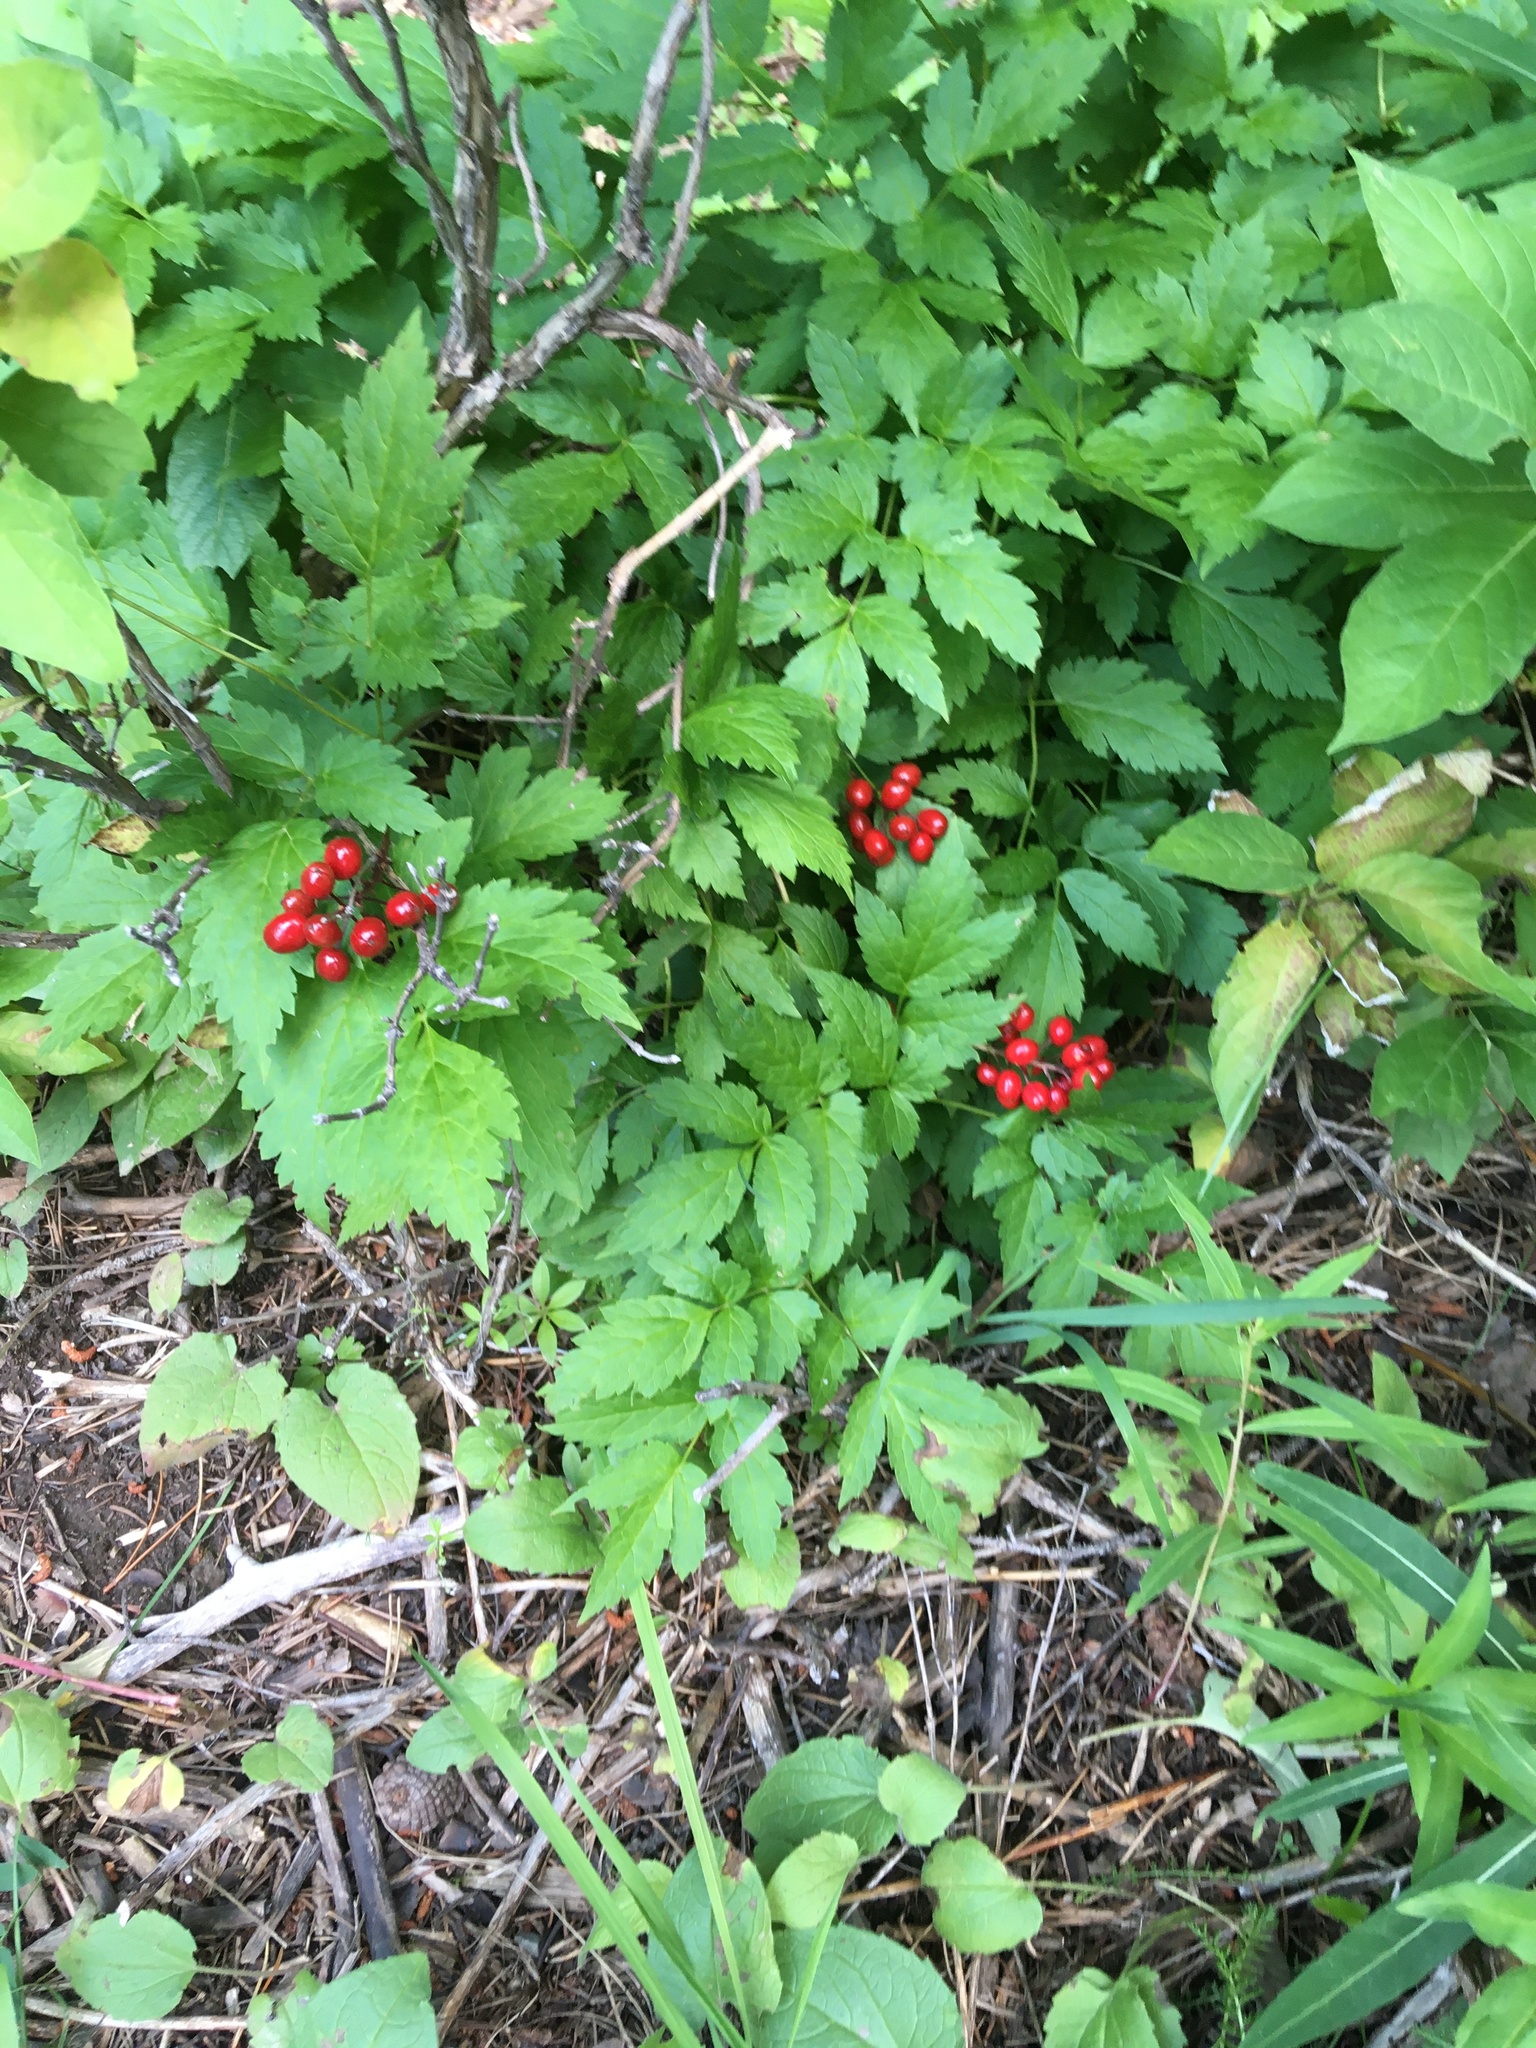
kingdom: Plantae
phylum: Tracheophyta
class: Magnoliopsida
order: Ranunculales
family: Ranunculaceae
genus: Actaea
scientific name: Actaea rubra
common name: Red baneberry
